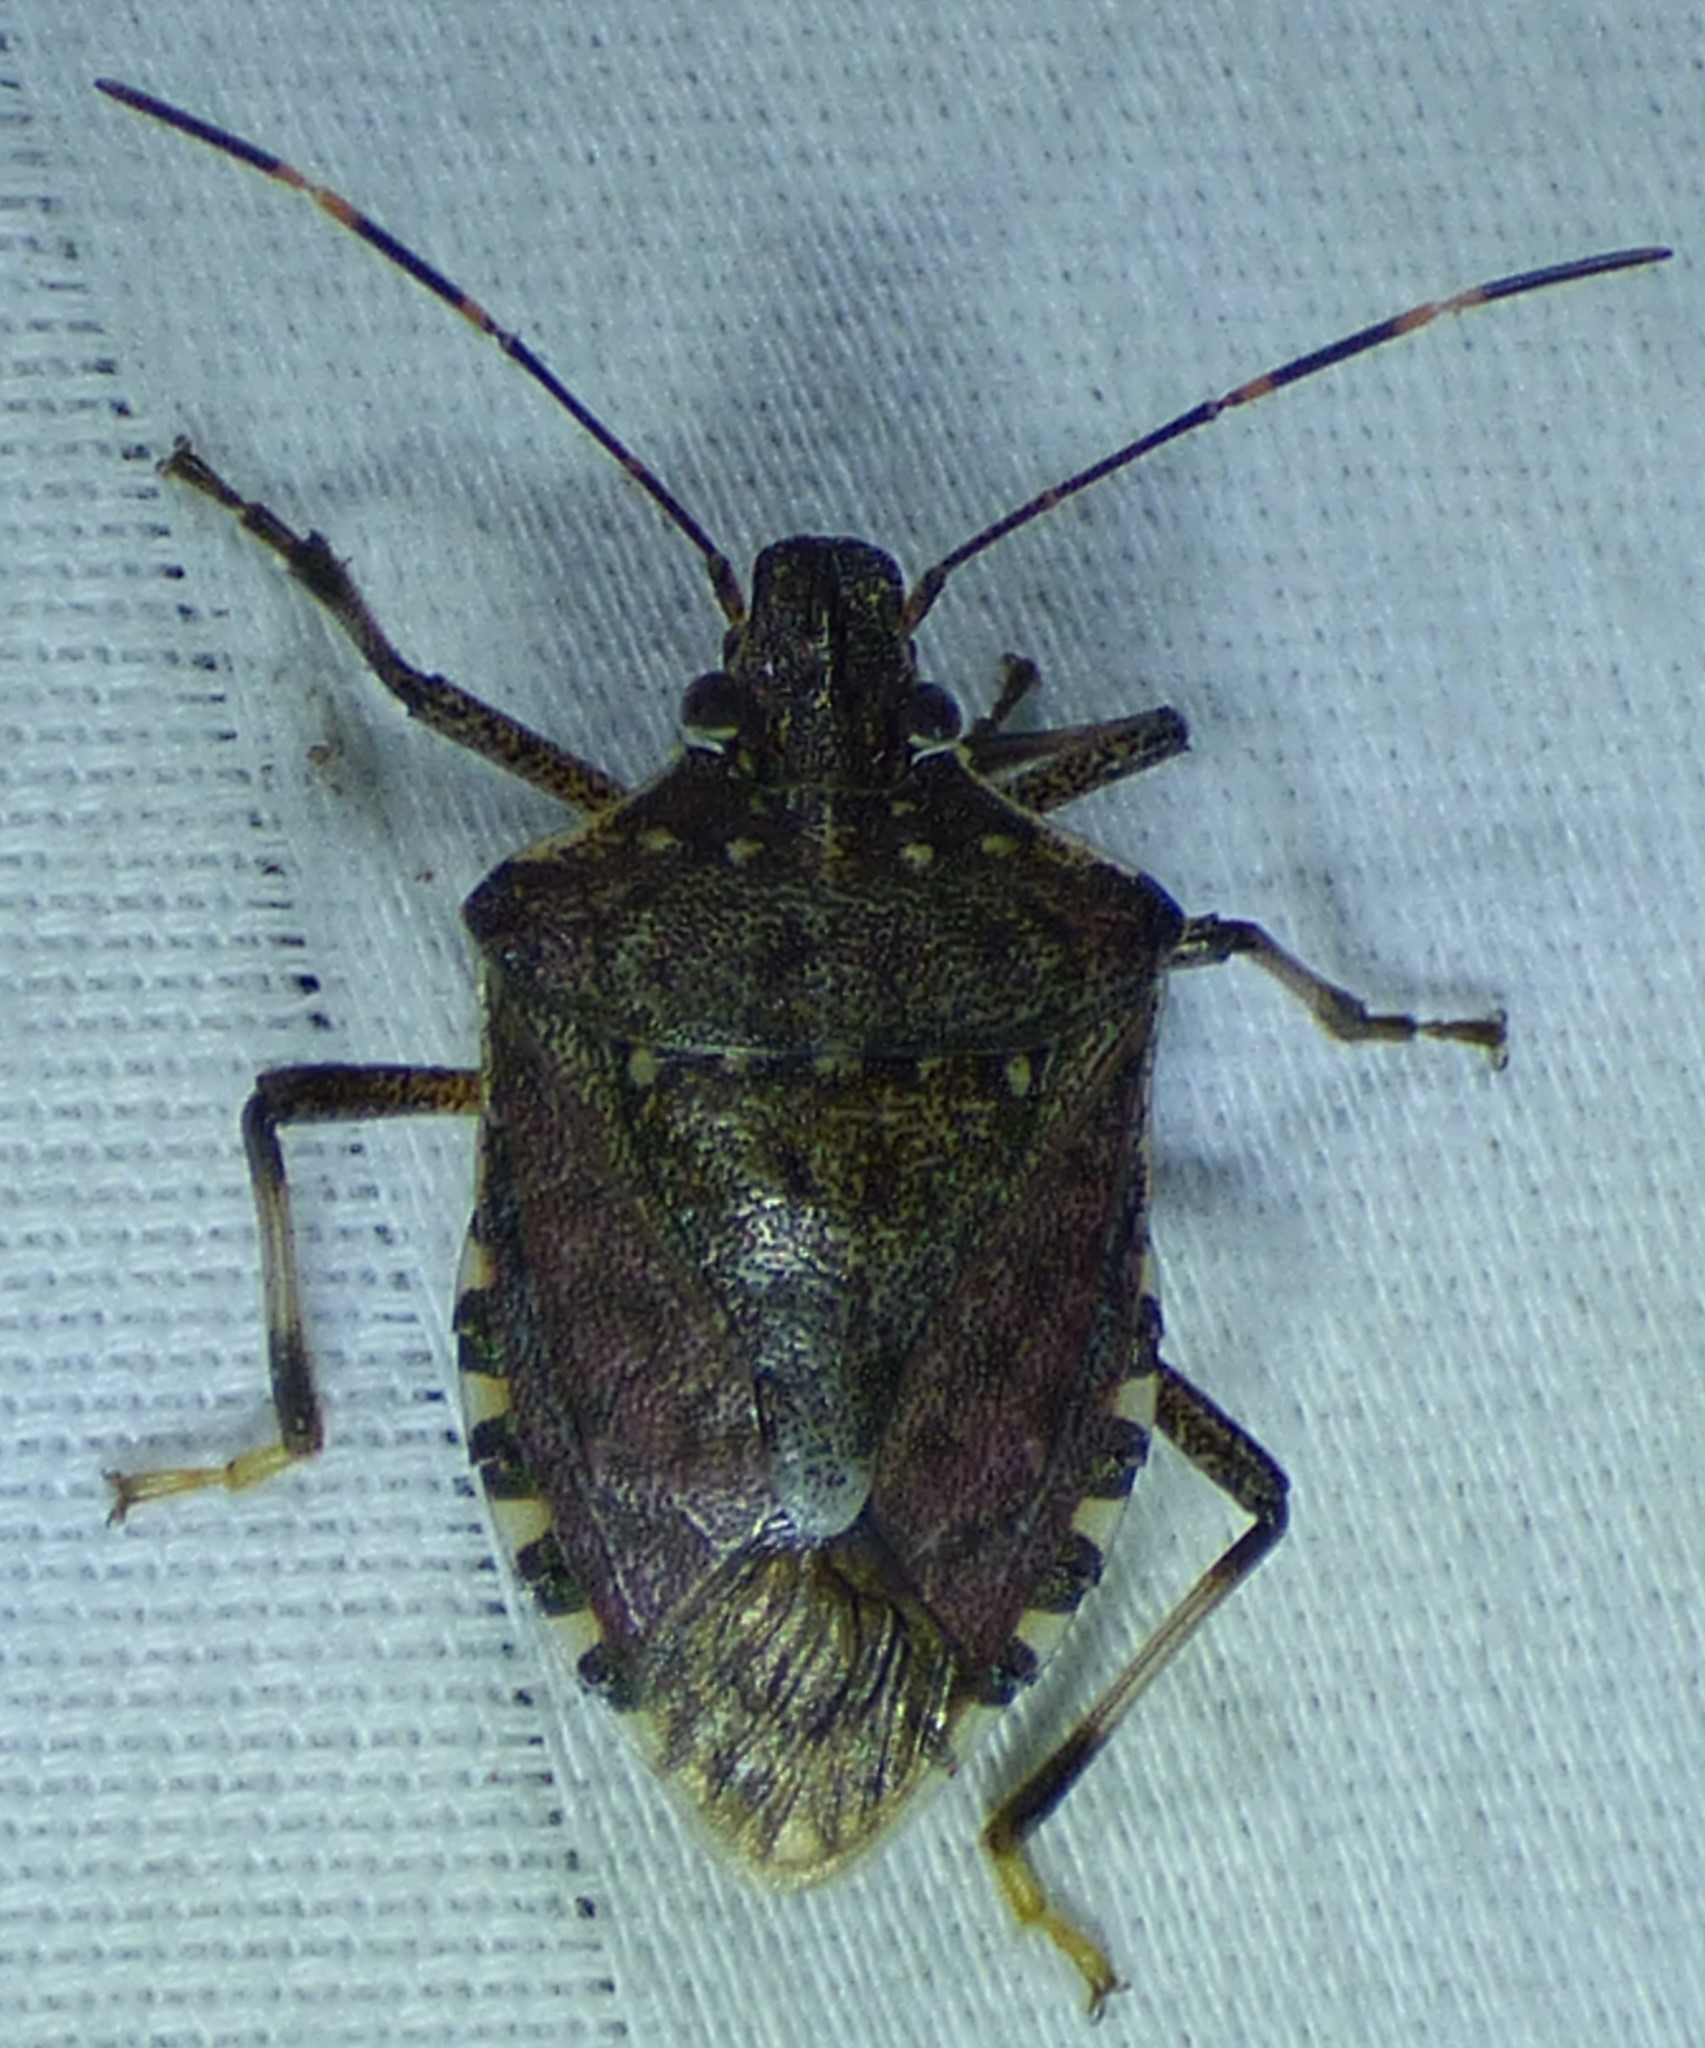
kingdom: Animalia
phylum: Arthropoda
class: Insecta
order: Hemiptera
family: Pentatomidae
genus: Halyomorpha
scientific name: Halyomorpha halys
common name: Brown marmorated stink bug
